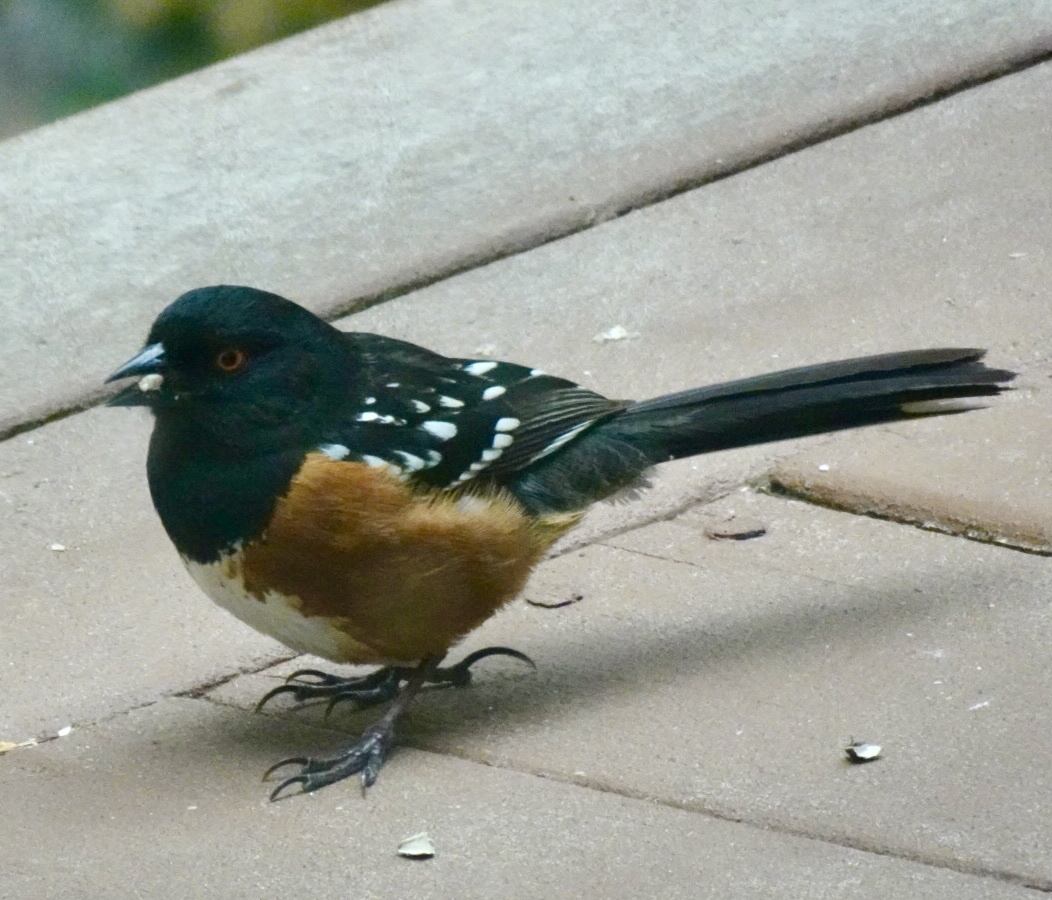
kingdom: Animalia
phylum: Chordata
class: Aves
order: Passeriformes
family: Passerellidae
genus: Pipilo
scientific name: Pipilo maculatus
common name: Spotted towhee
